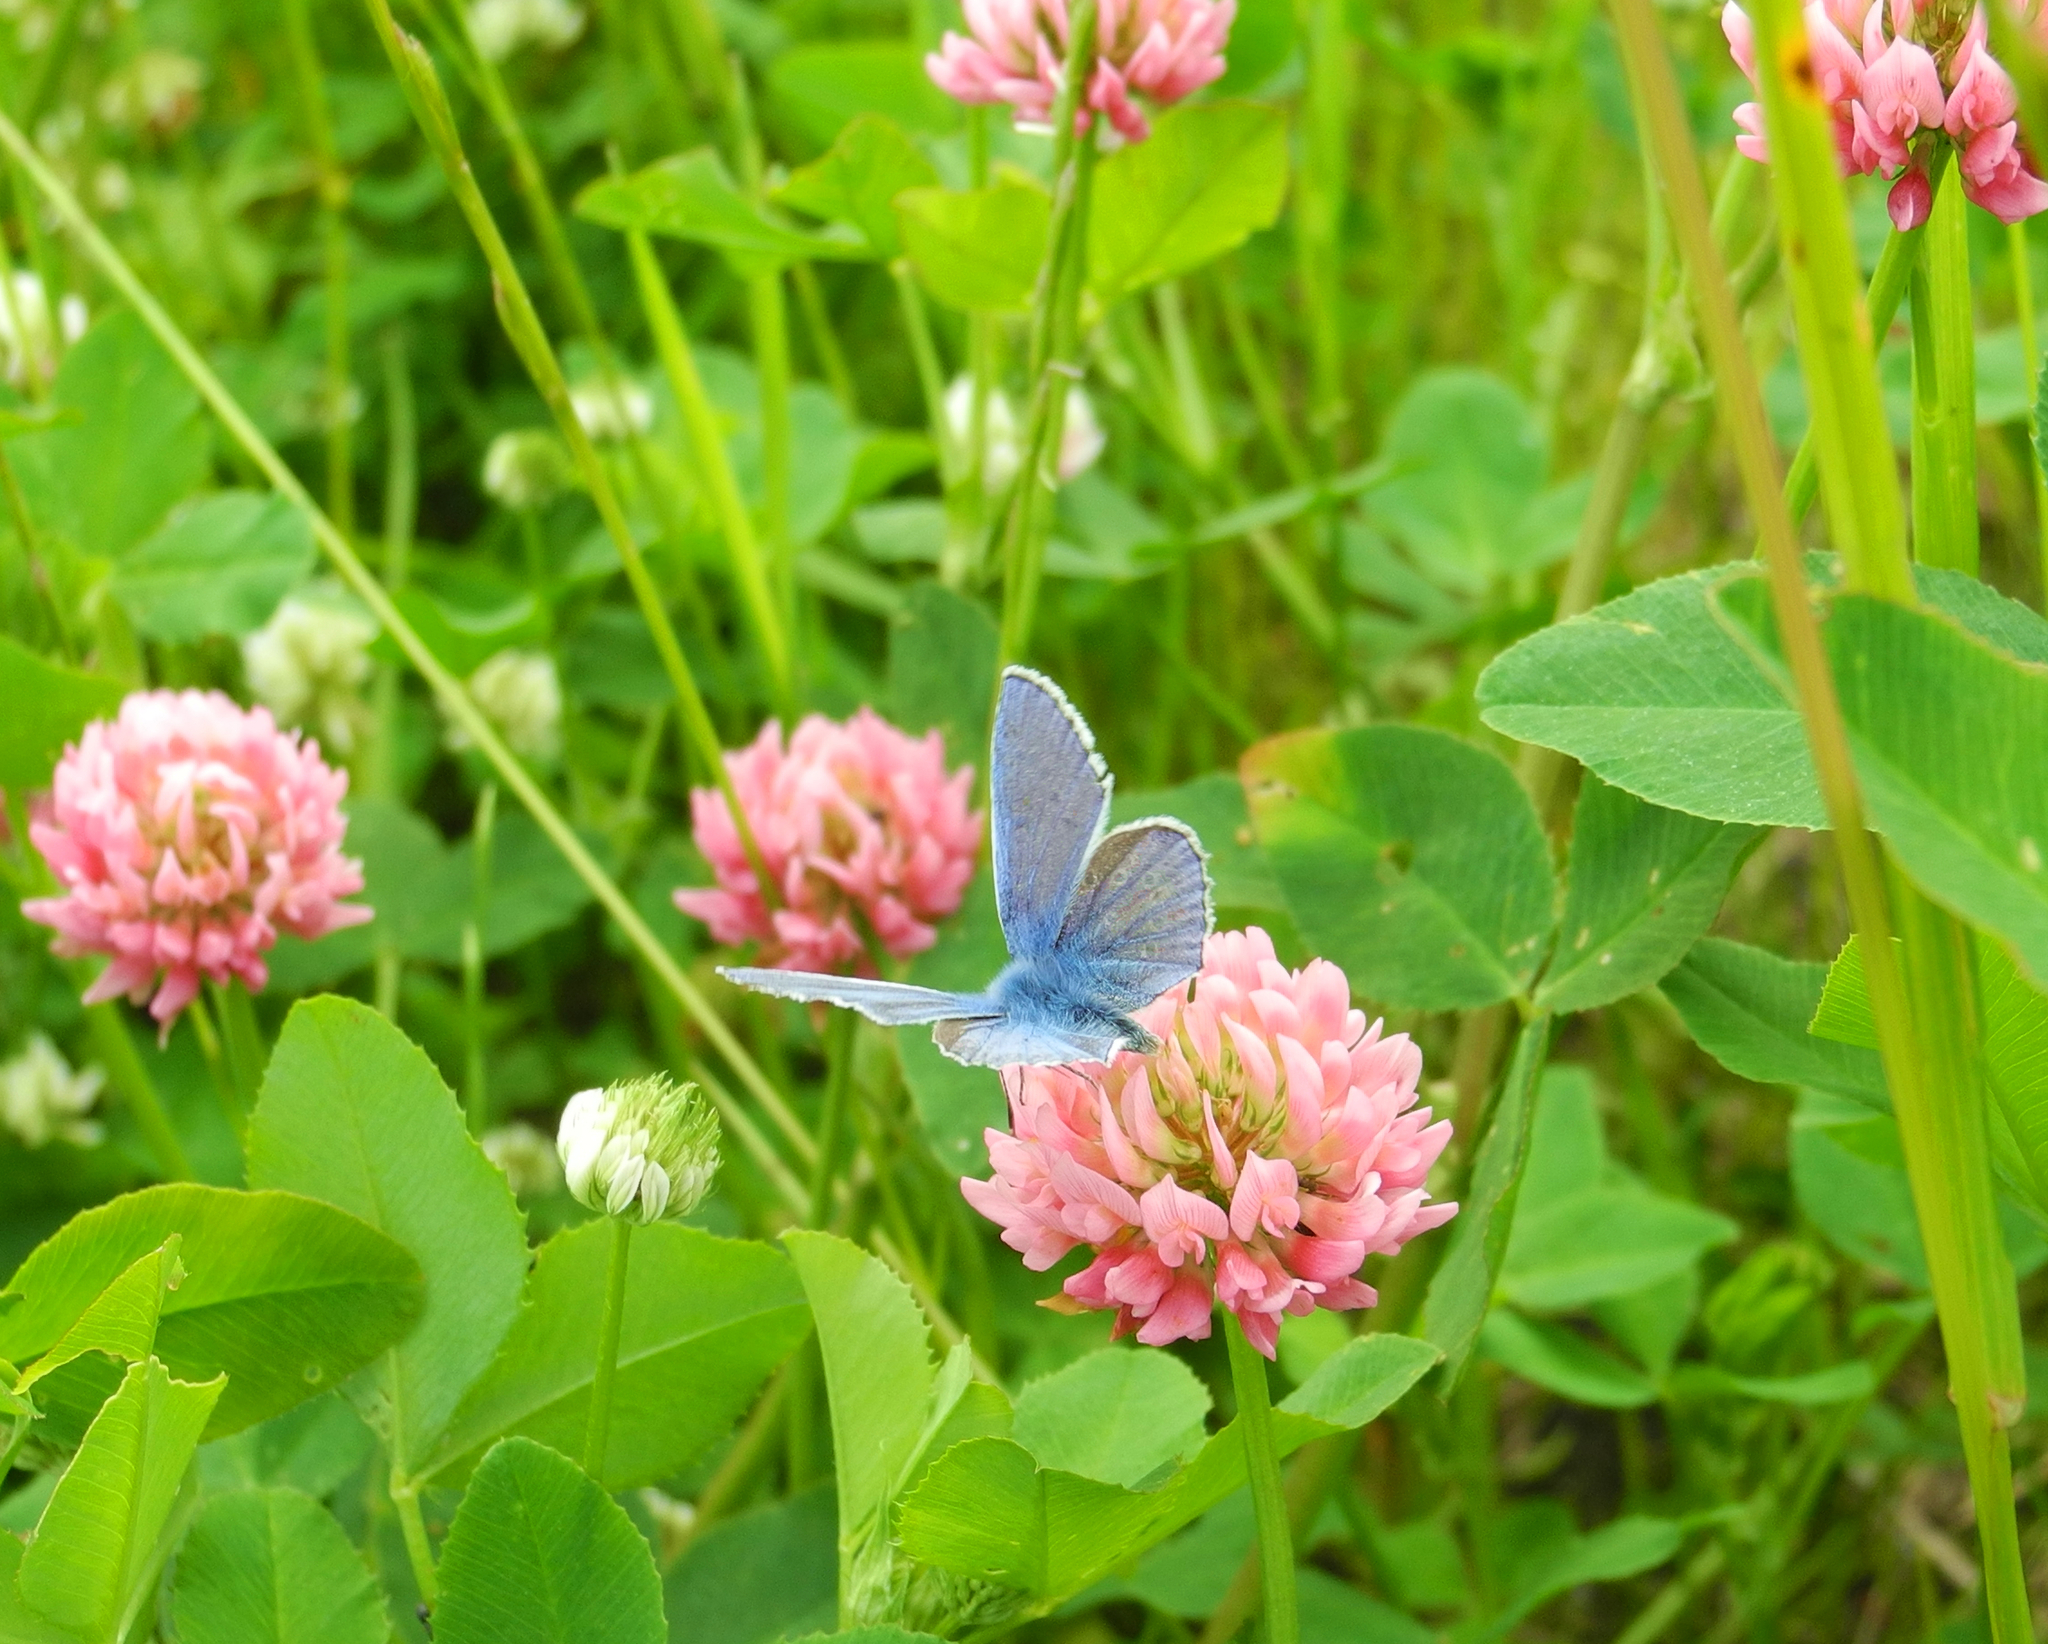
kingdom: Animalia
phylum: Arthropoda
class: Insecta
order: Lepidoptera
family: Lycaenidae
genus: Polyommatus
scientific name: Polyommatus icarus
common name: Common blue
